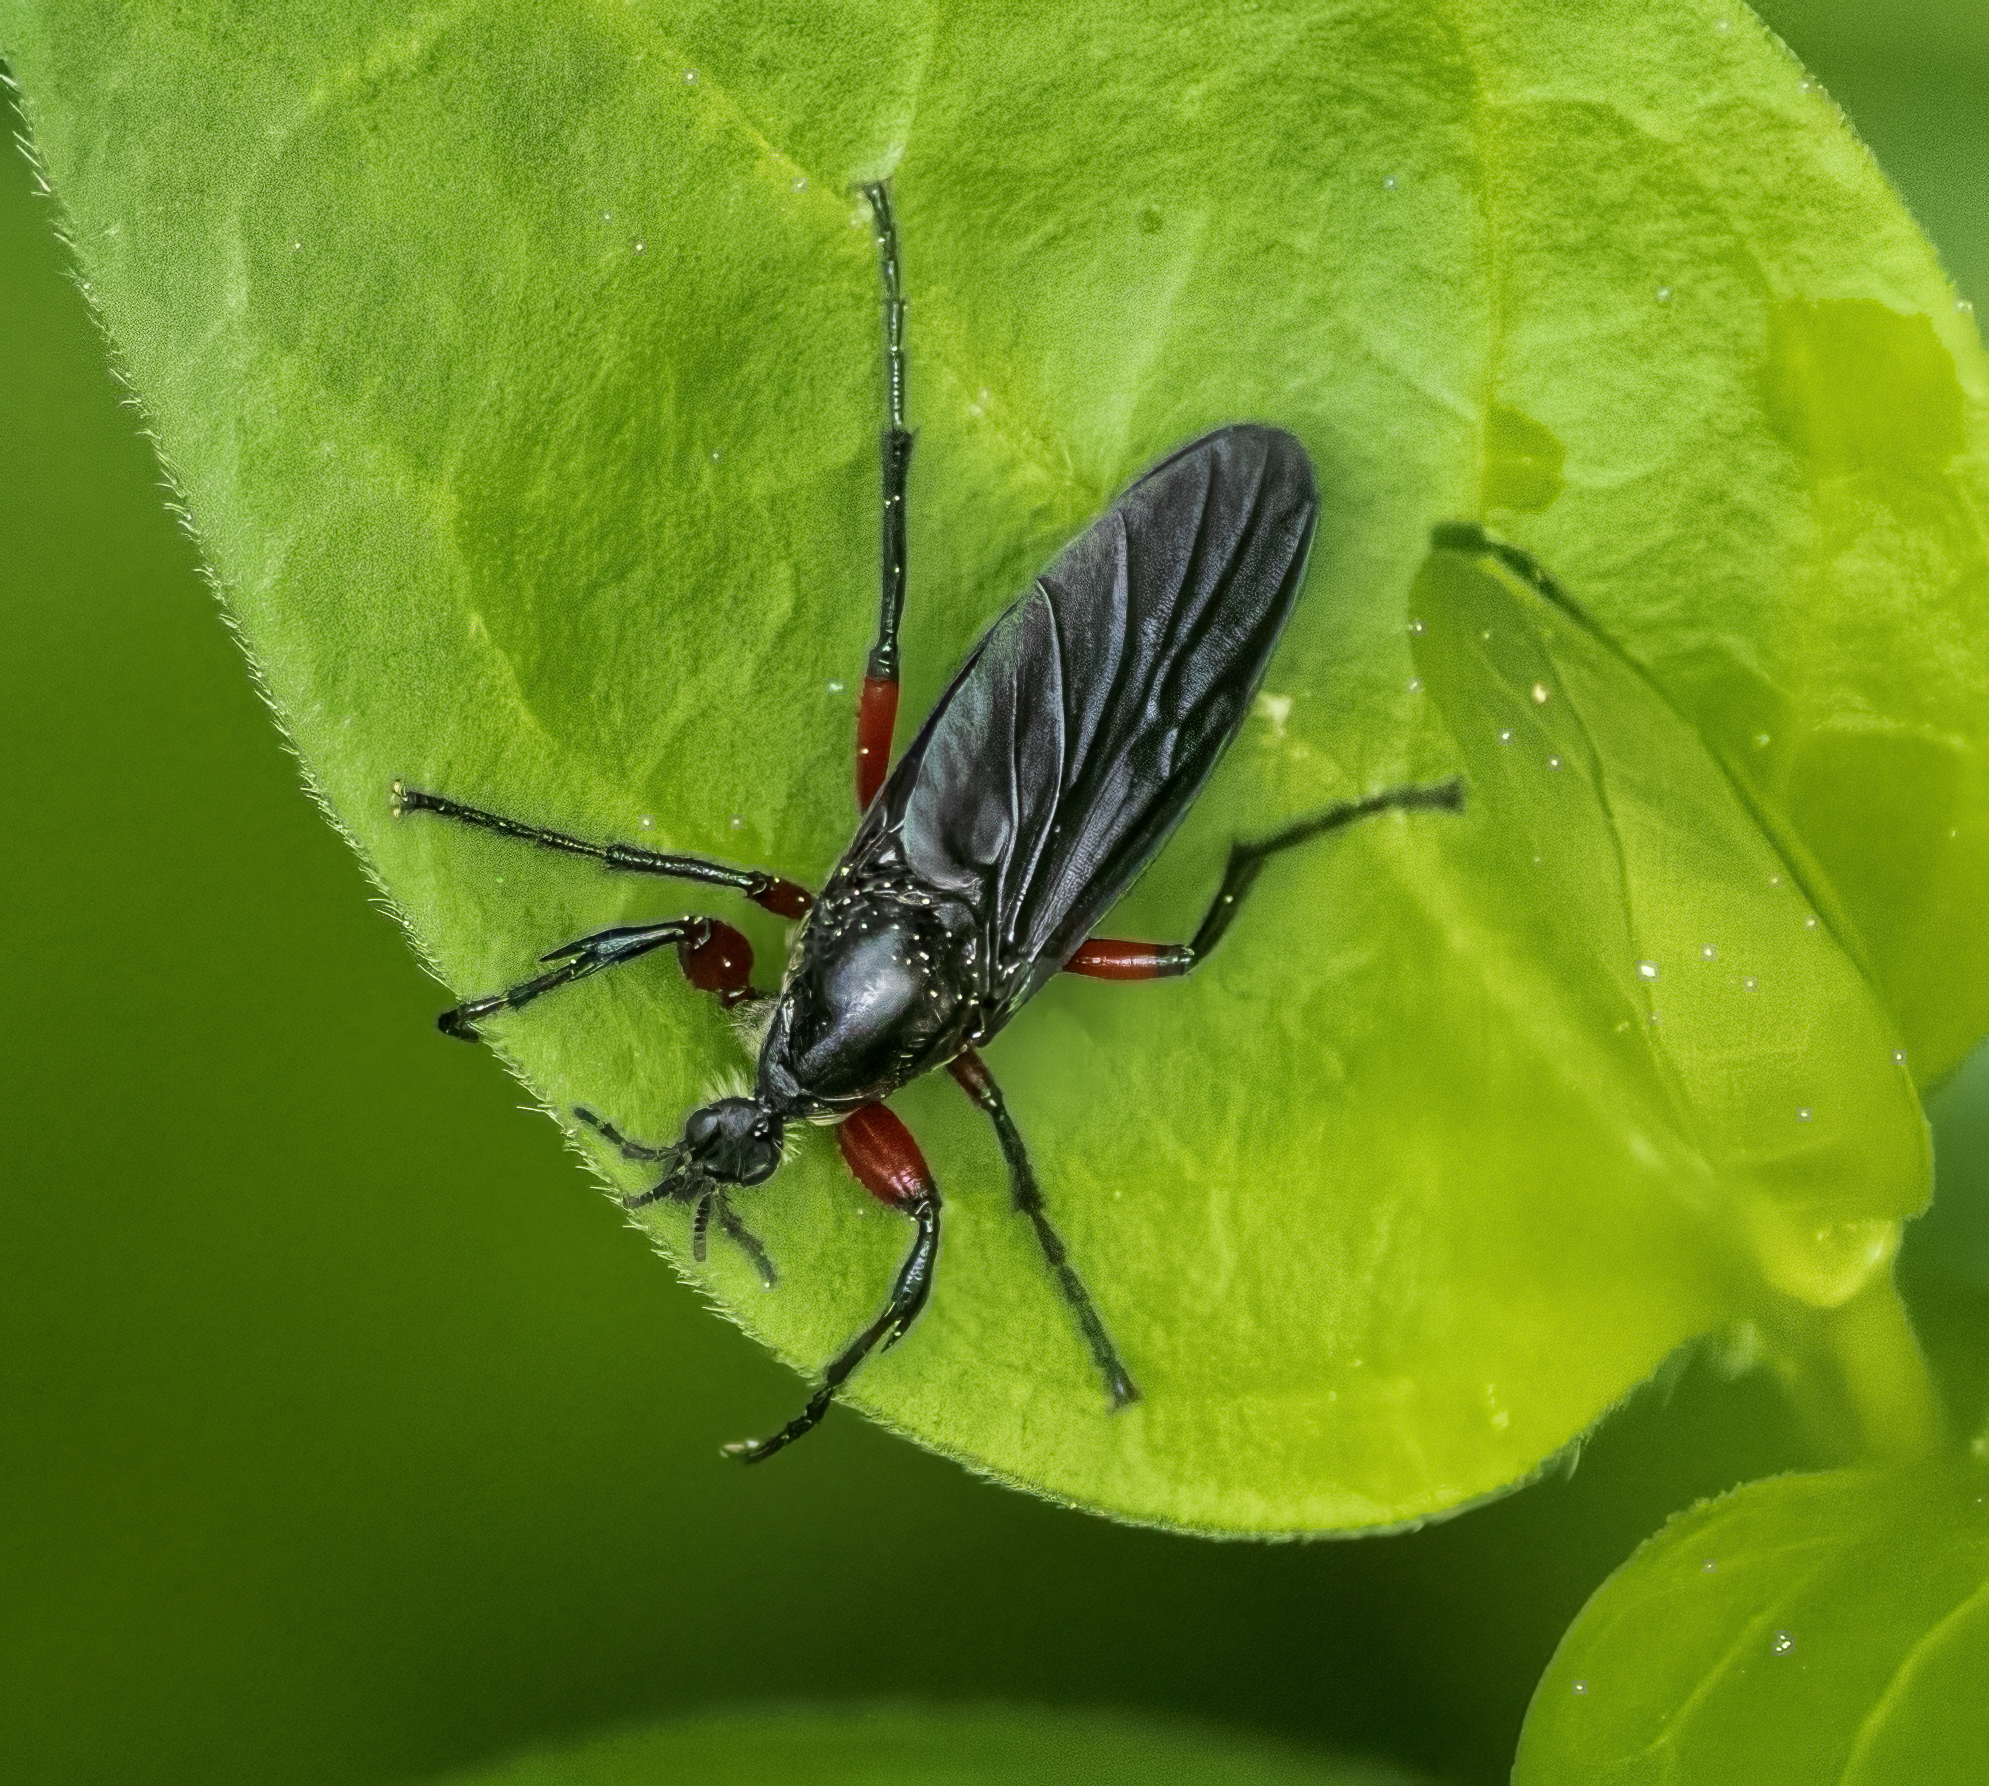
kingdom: Animalia
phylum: Arthropoda
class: Insecta
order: Diptera
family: Bibionidae
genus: Bibio
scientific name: Bibio femoratus
